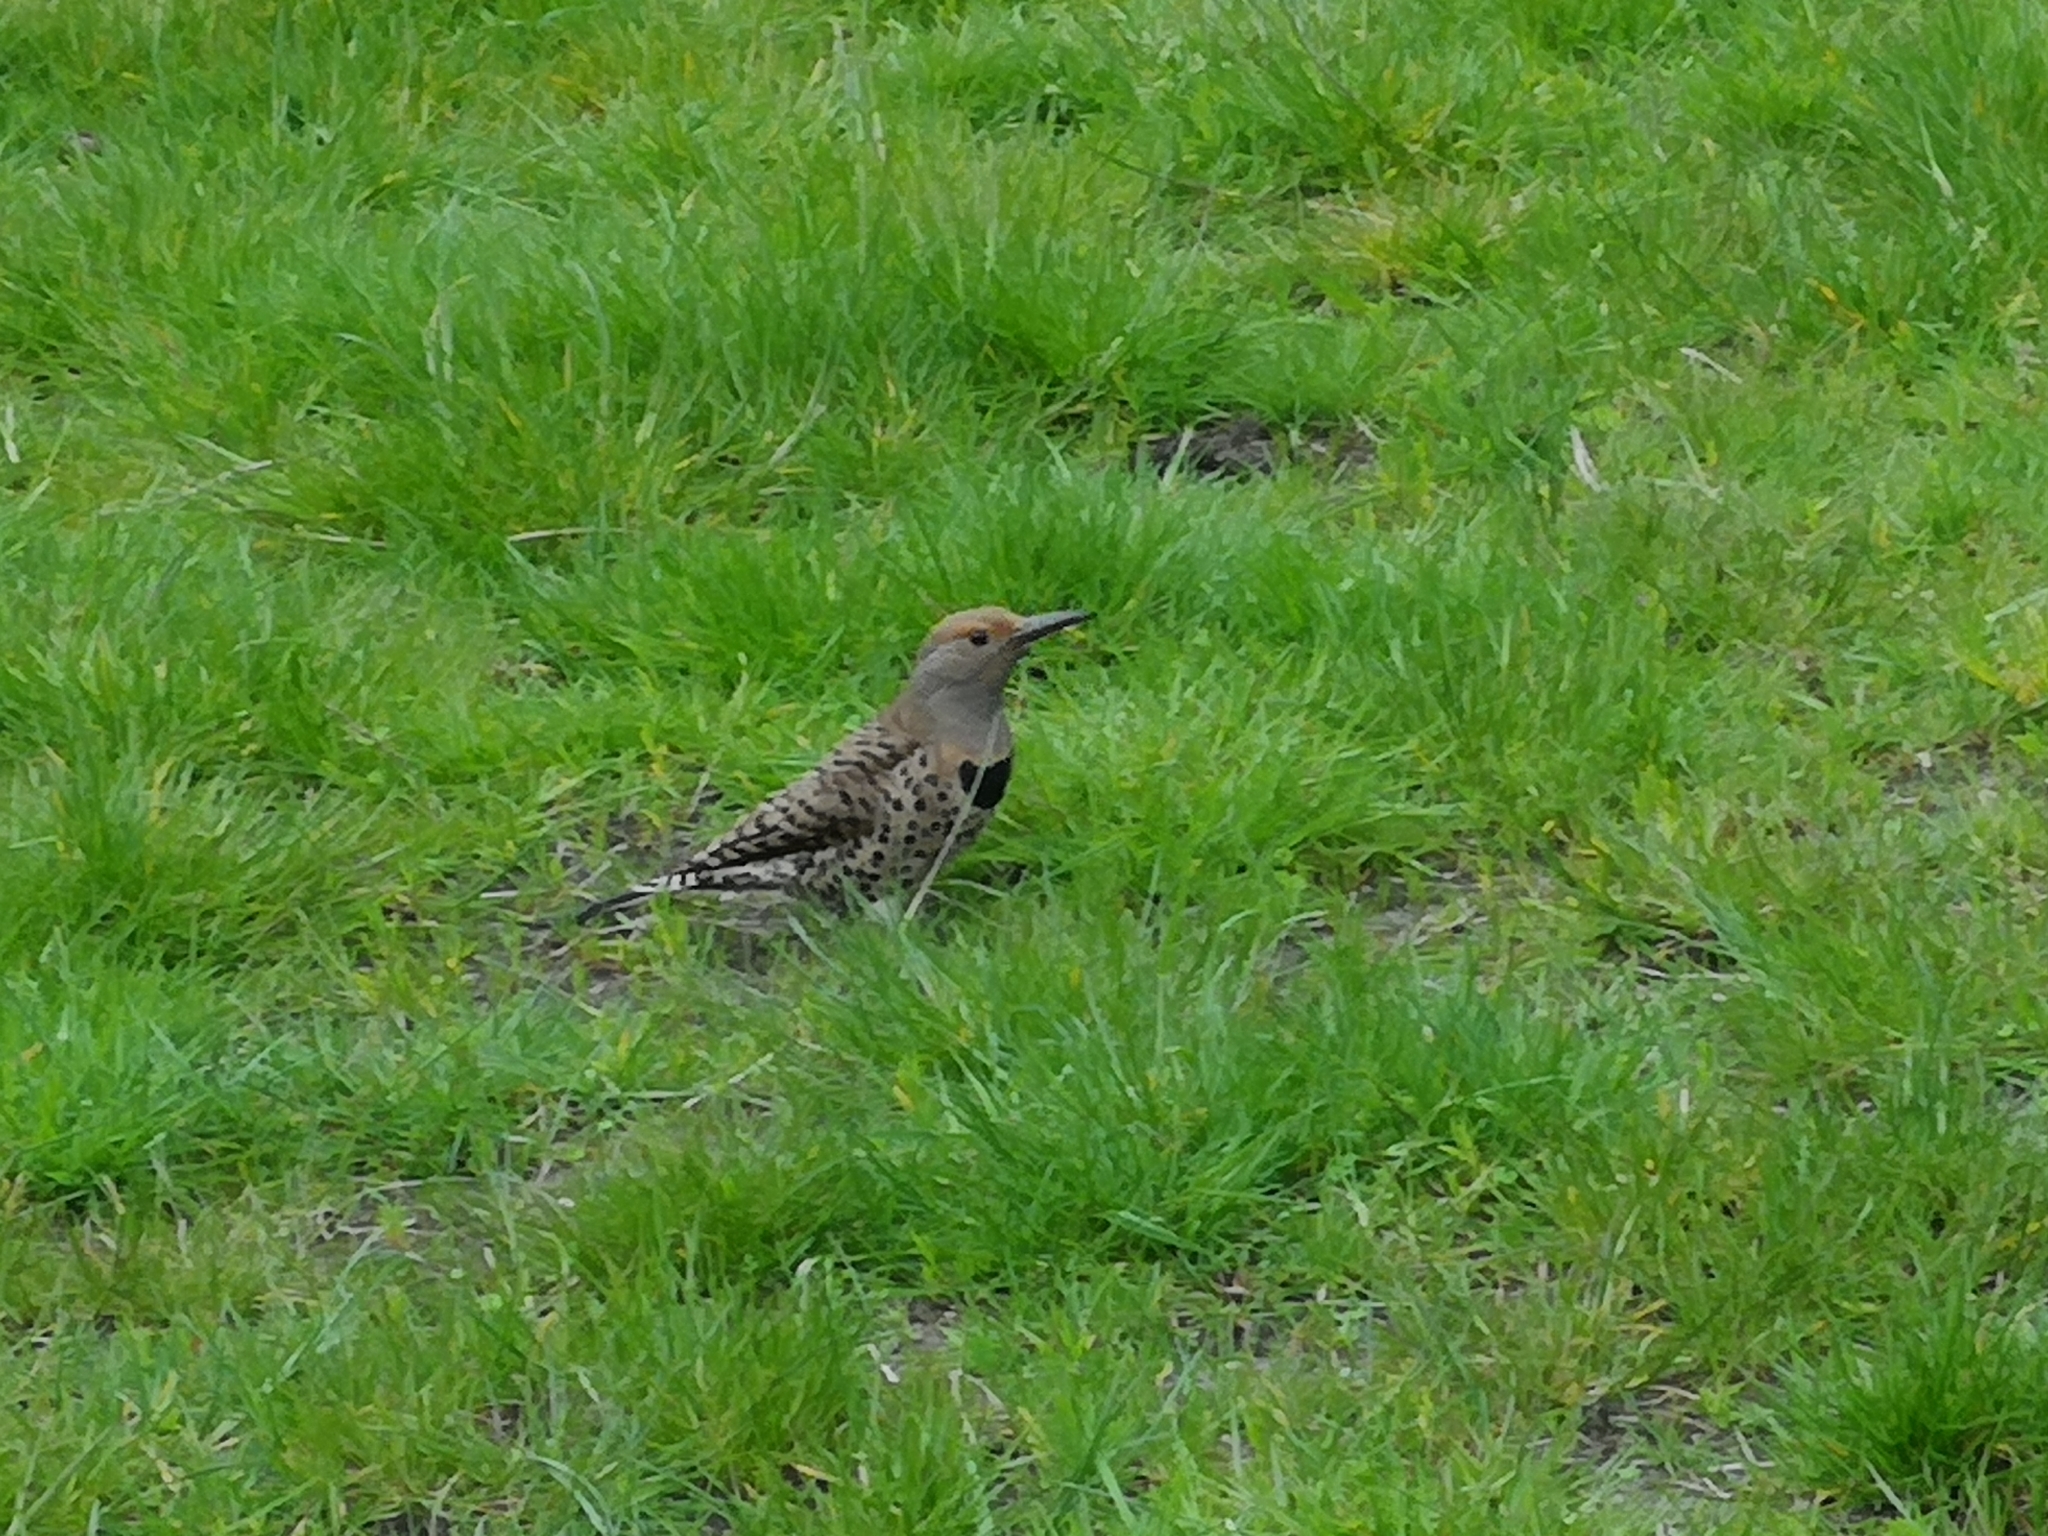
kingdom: Animalia
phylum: Chordata
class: Aves
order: Piciformes
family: Picidae
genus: Colaptes
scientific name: Colaptes auratus
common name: Northern flicker
